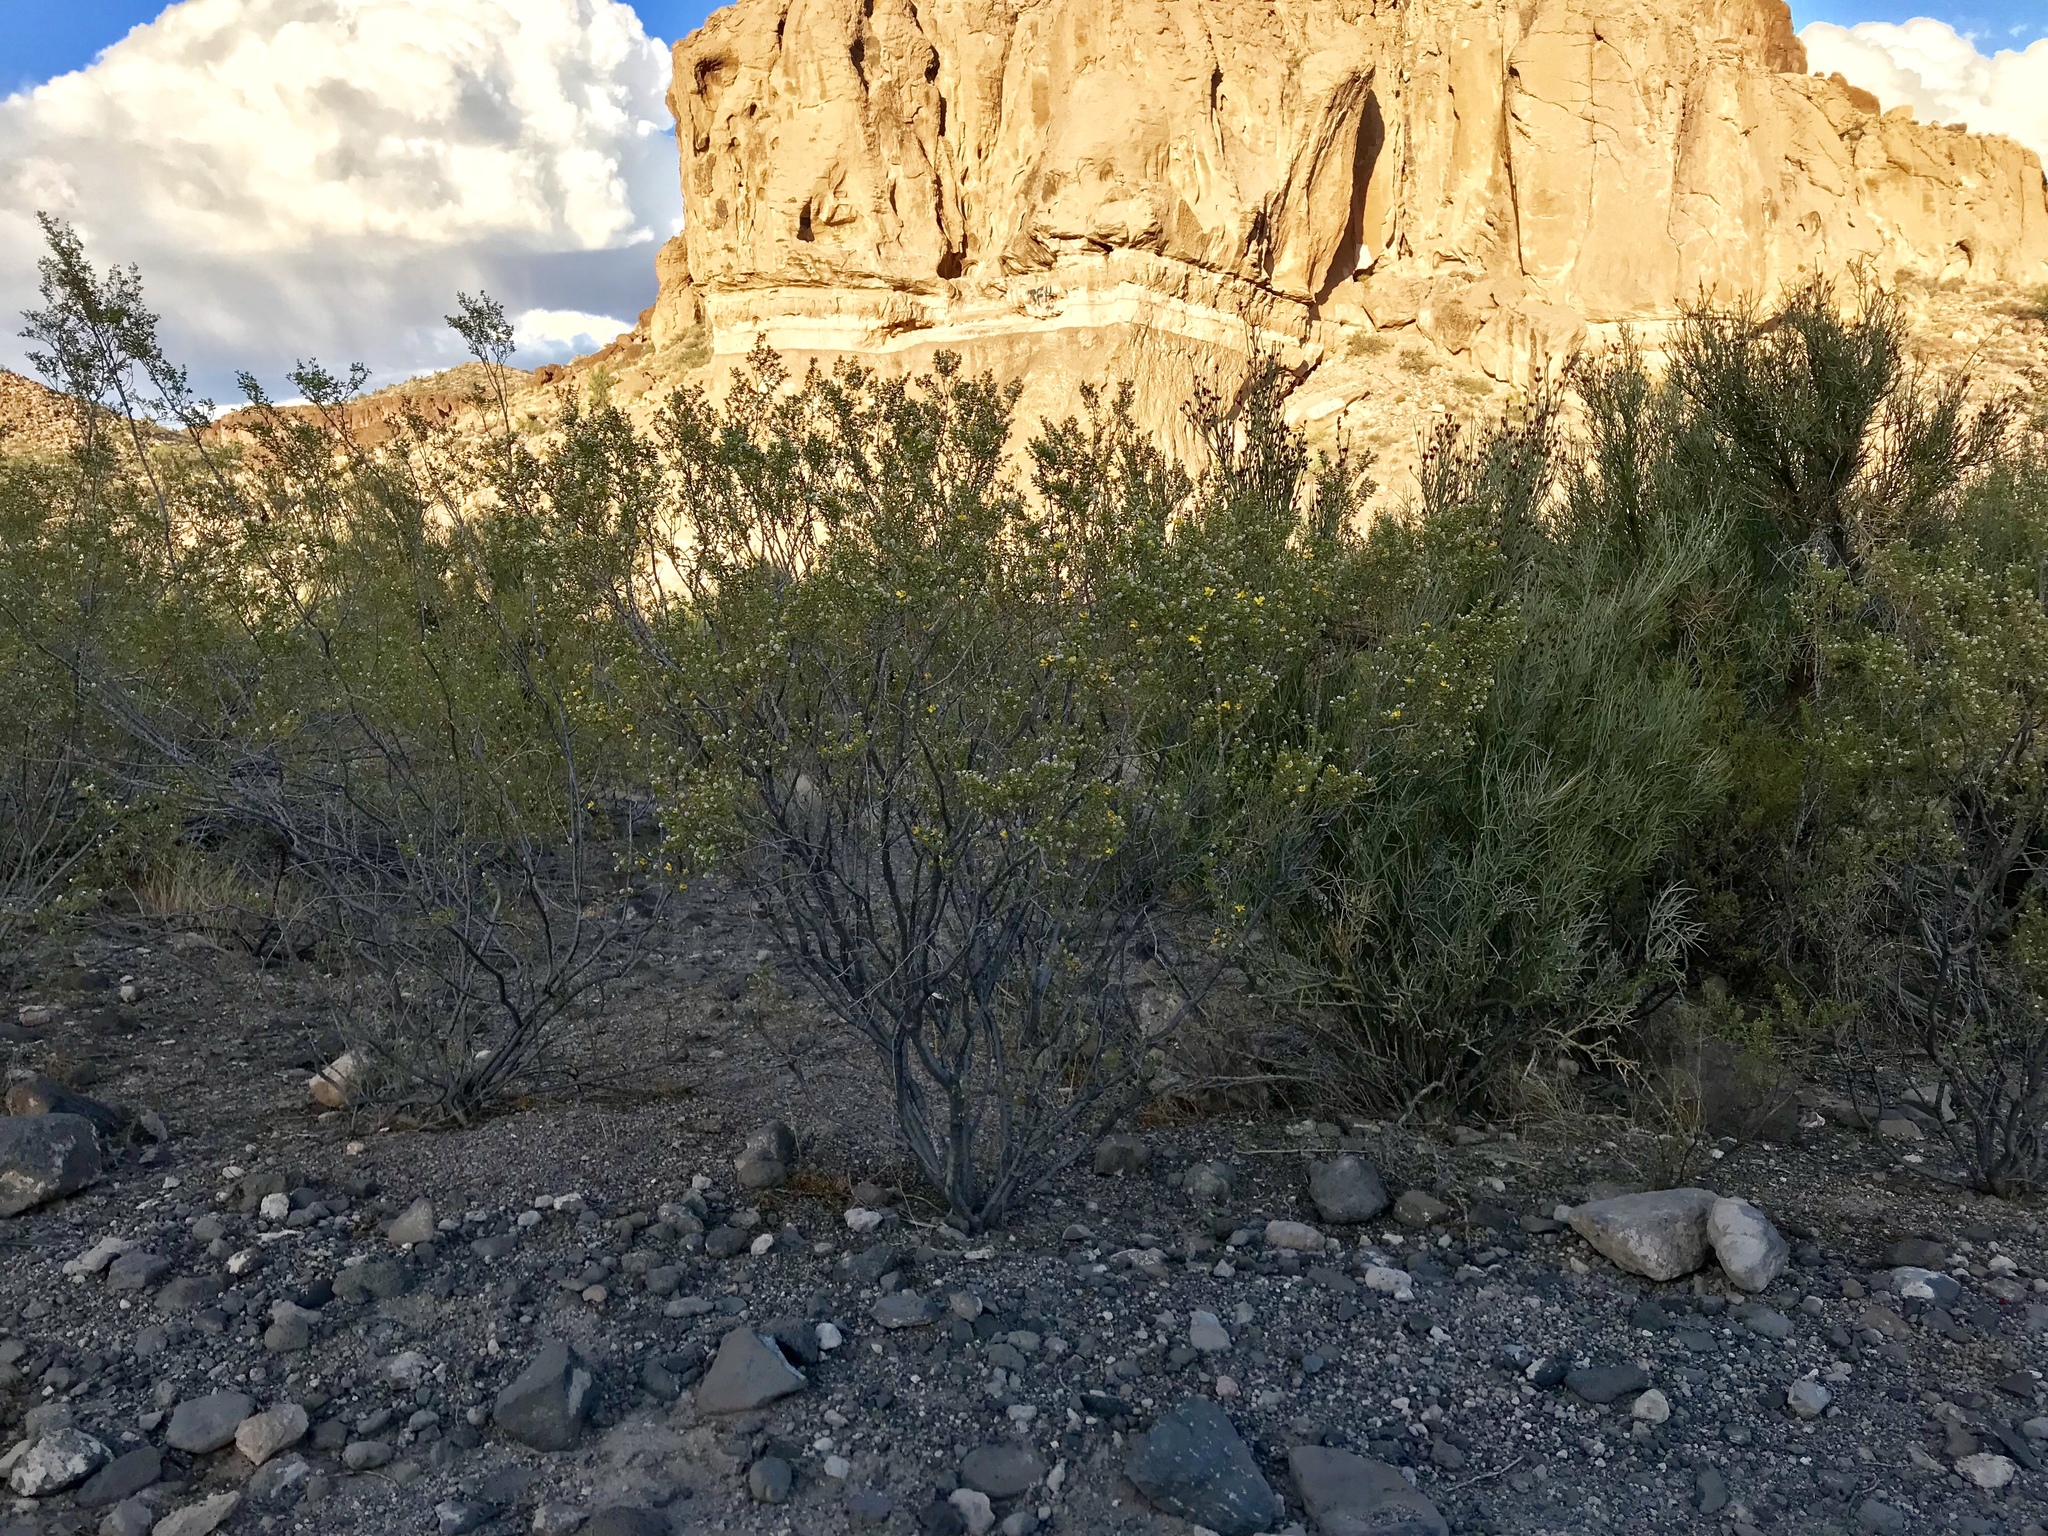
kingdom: Plantae
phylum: Tracheophyta
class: Magnoliopsida
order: Zygophyllales
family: Zygophyllaceae
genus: Larrea
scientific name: Larrea tridentata
